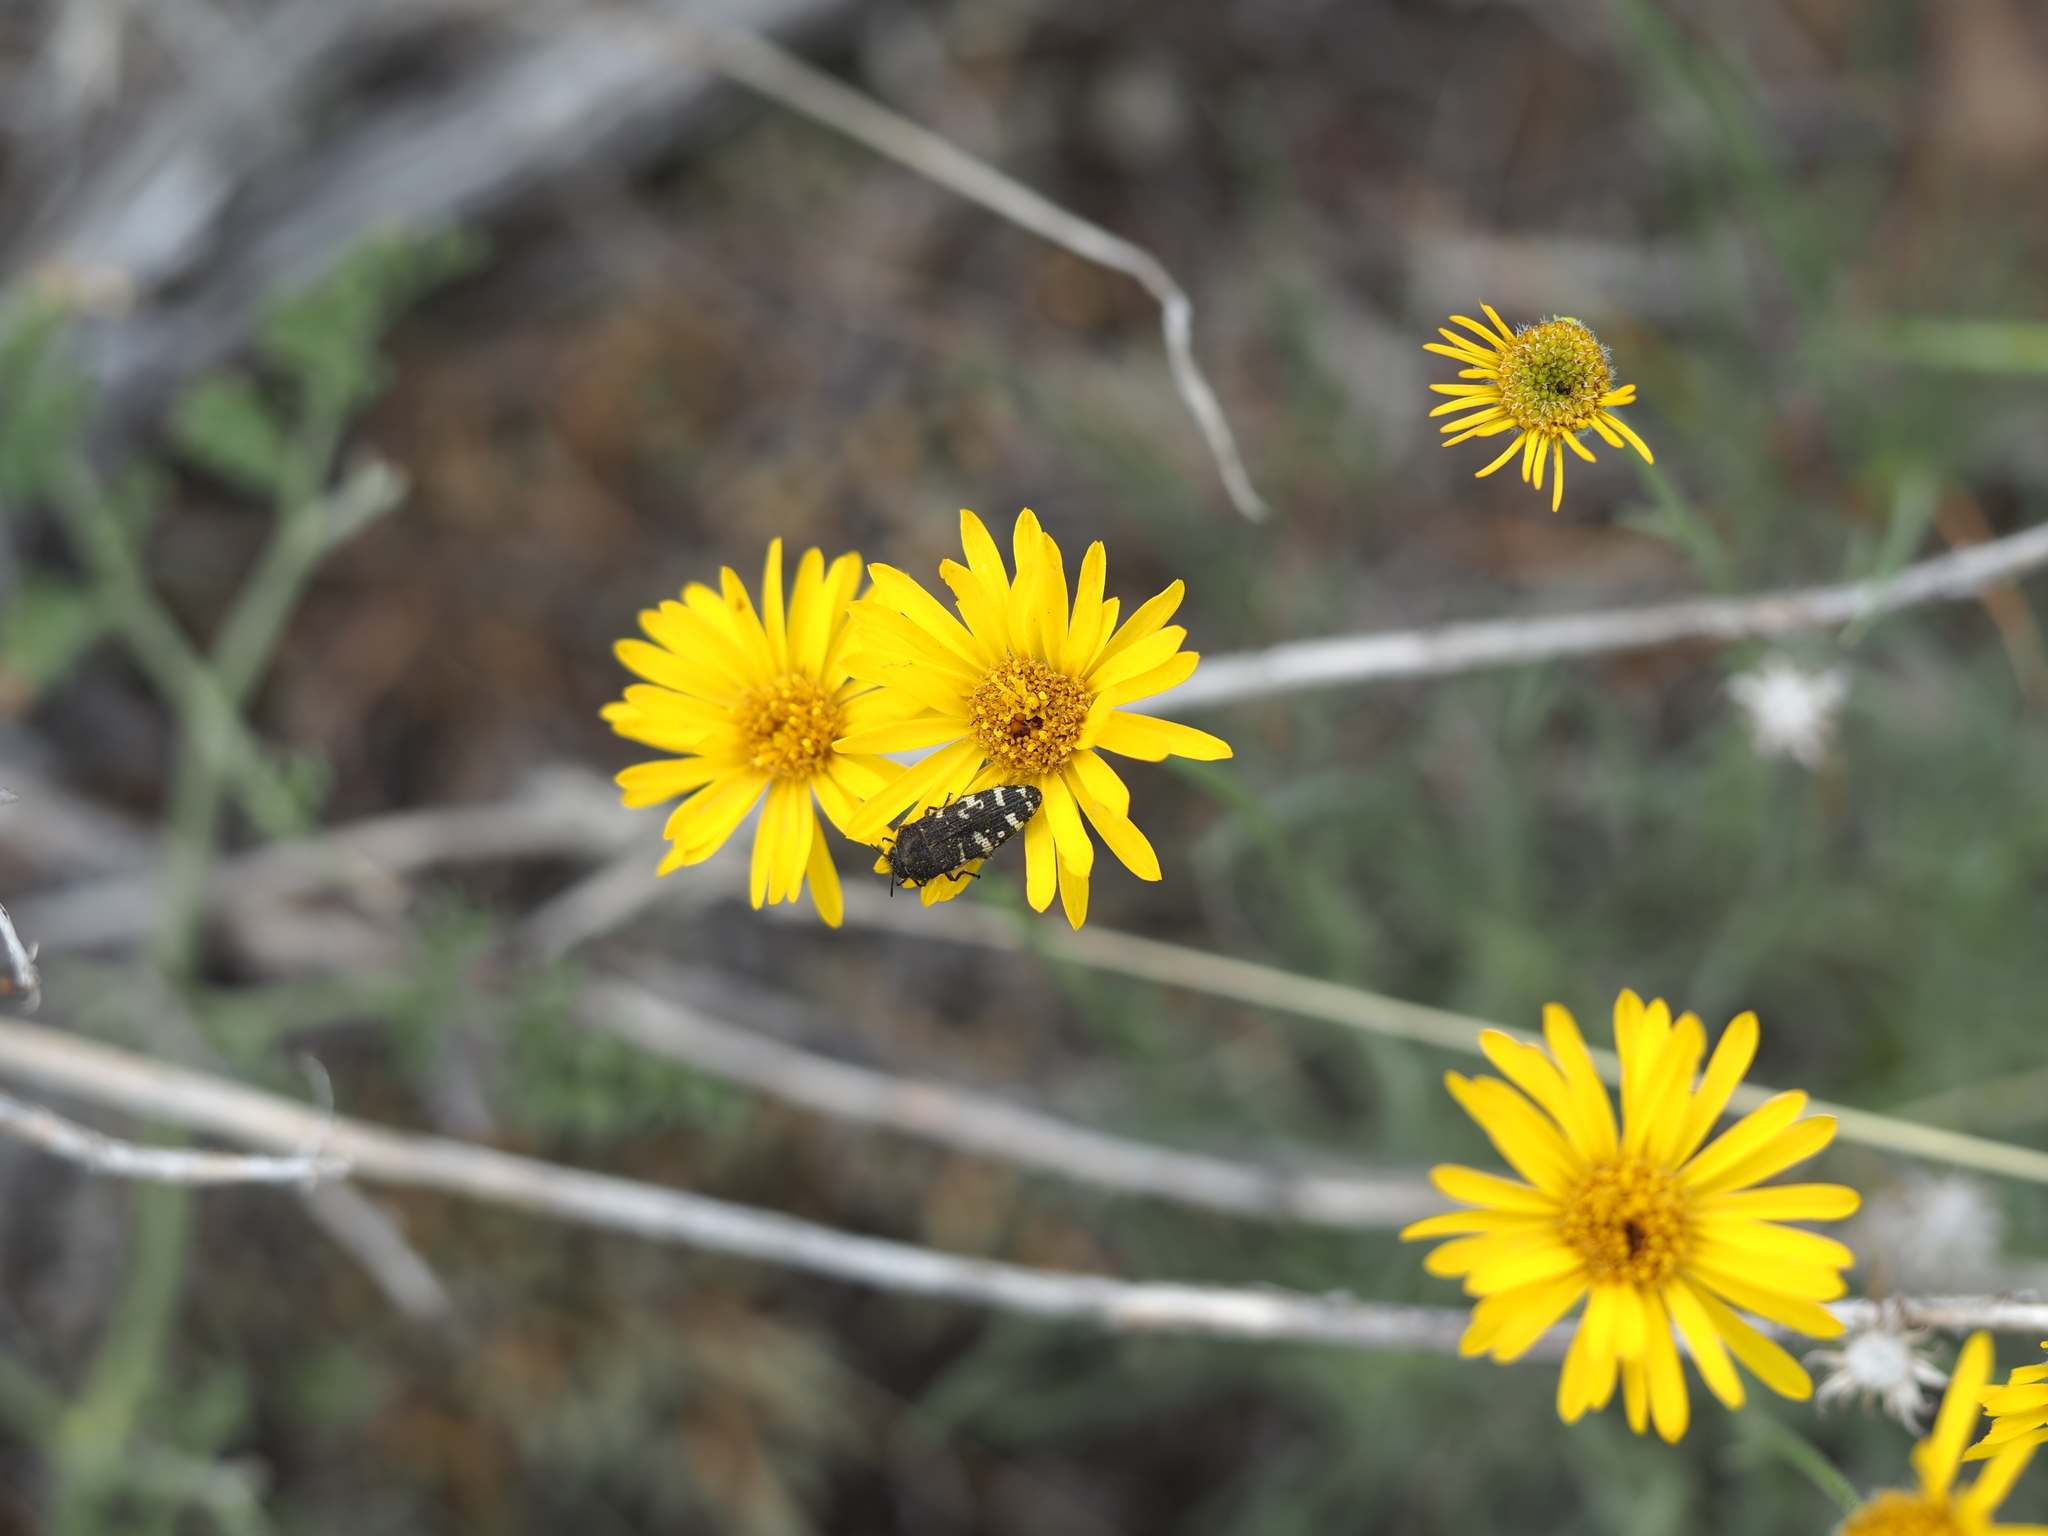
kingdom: Animalia
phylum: Arthropoda
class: Insecta
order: Coleoptera
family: Buprestidae
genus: Acmaeodera
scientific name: Acmaeodera idahoensis
